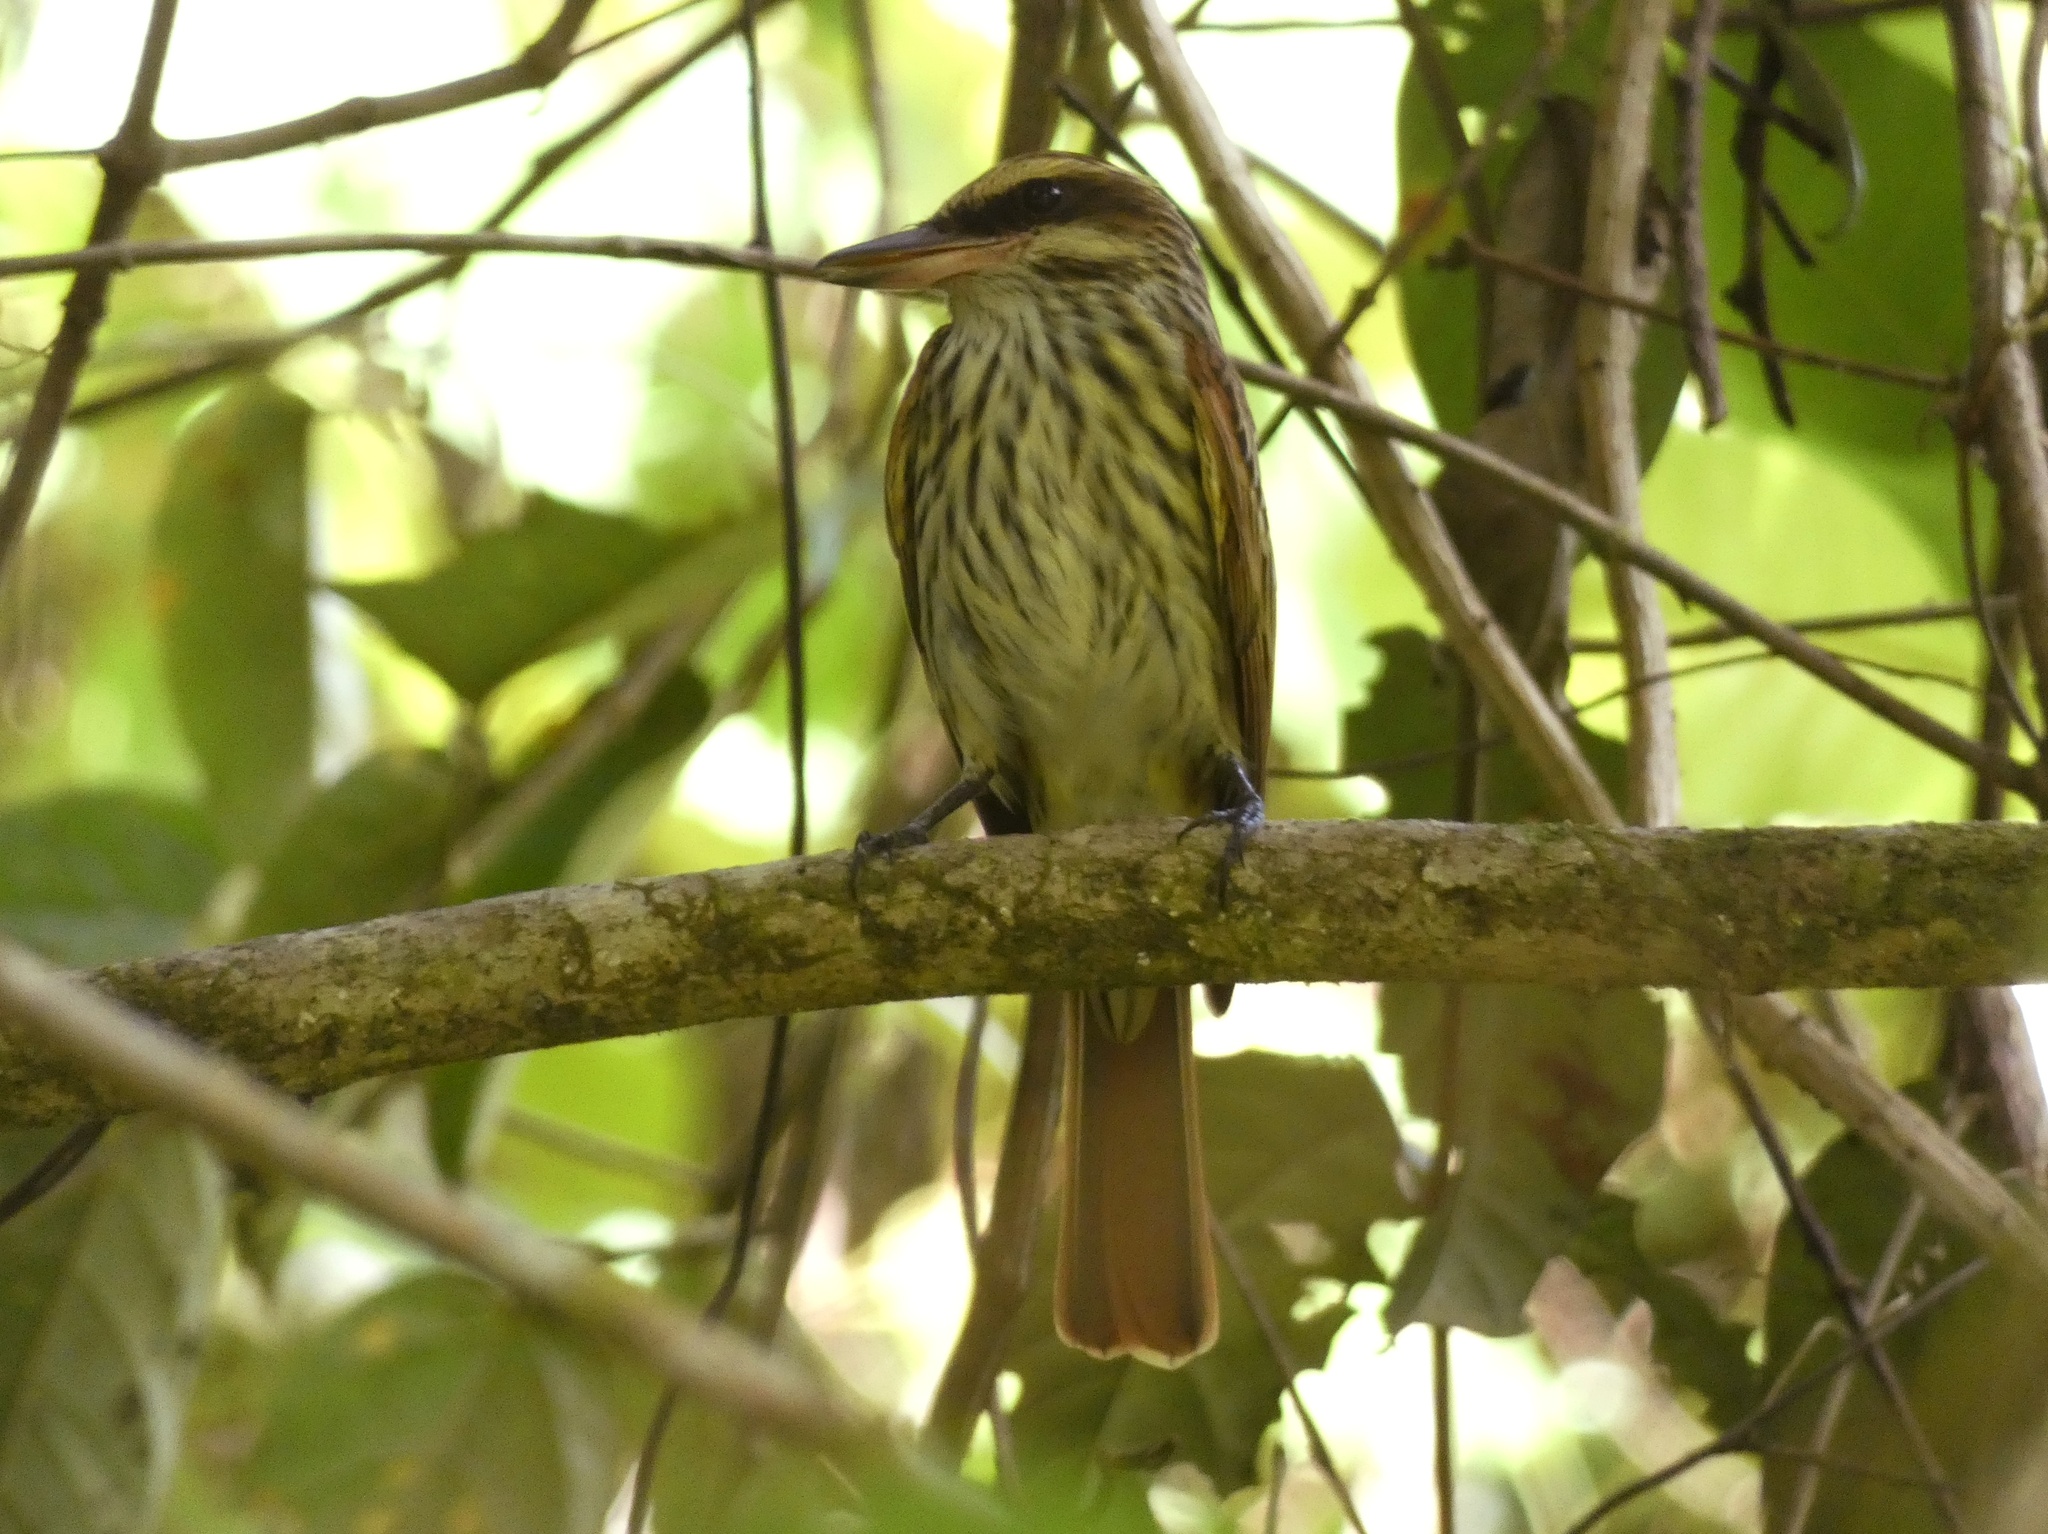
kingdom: Animalia
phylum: Chordata
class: Aves
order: Passeriformes
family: Tyrannidae
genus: Myiodynastes
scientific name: Myiodynastes maculatus
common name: Streaked flycatcher
